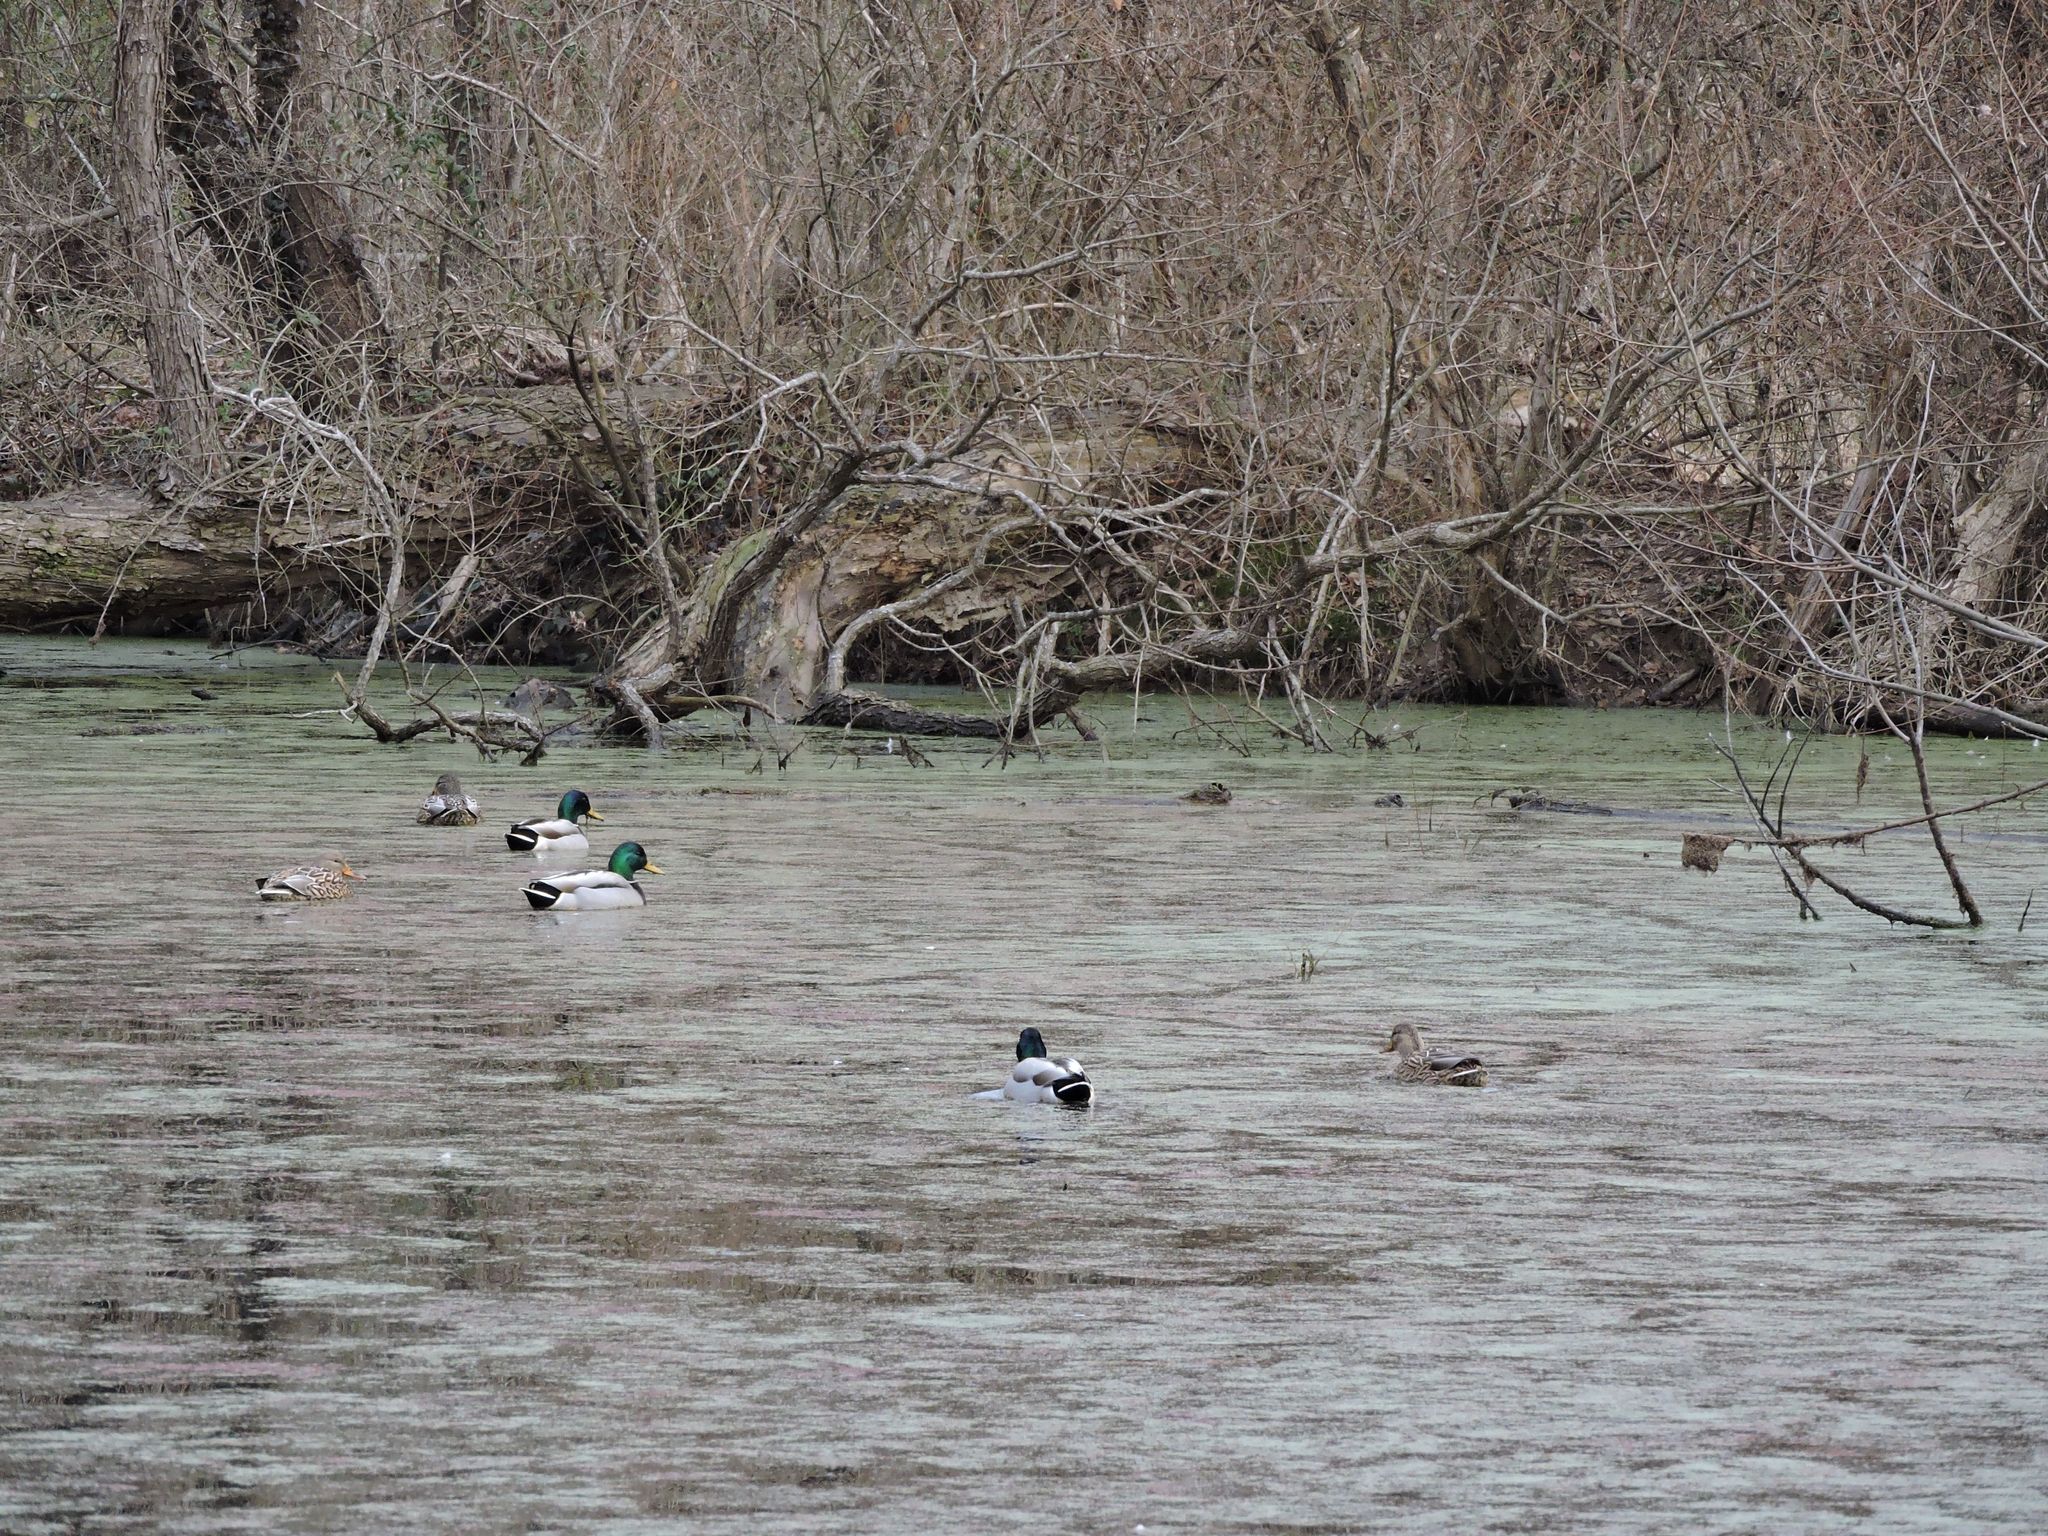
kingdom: Animalia
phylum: Chordata
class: Aves
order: Anseriformes
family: Anatidae
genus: Anas
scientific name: Anas platyrhynchos
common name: Mallard
